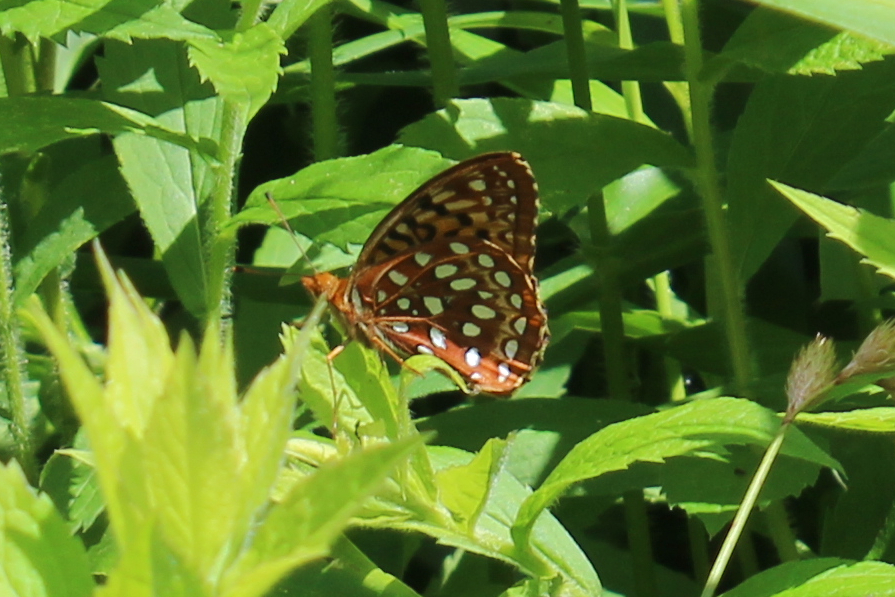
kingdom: Animalia
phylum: Arthropoda
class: Insecta
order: Lepidoptera
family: Nymphalidae
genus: Speyeria
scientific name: Speyeria aphrodite
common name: Aphrodite friitllary
